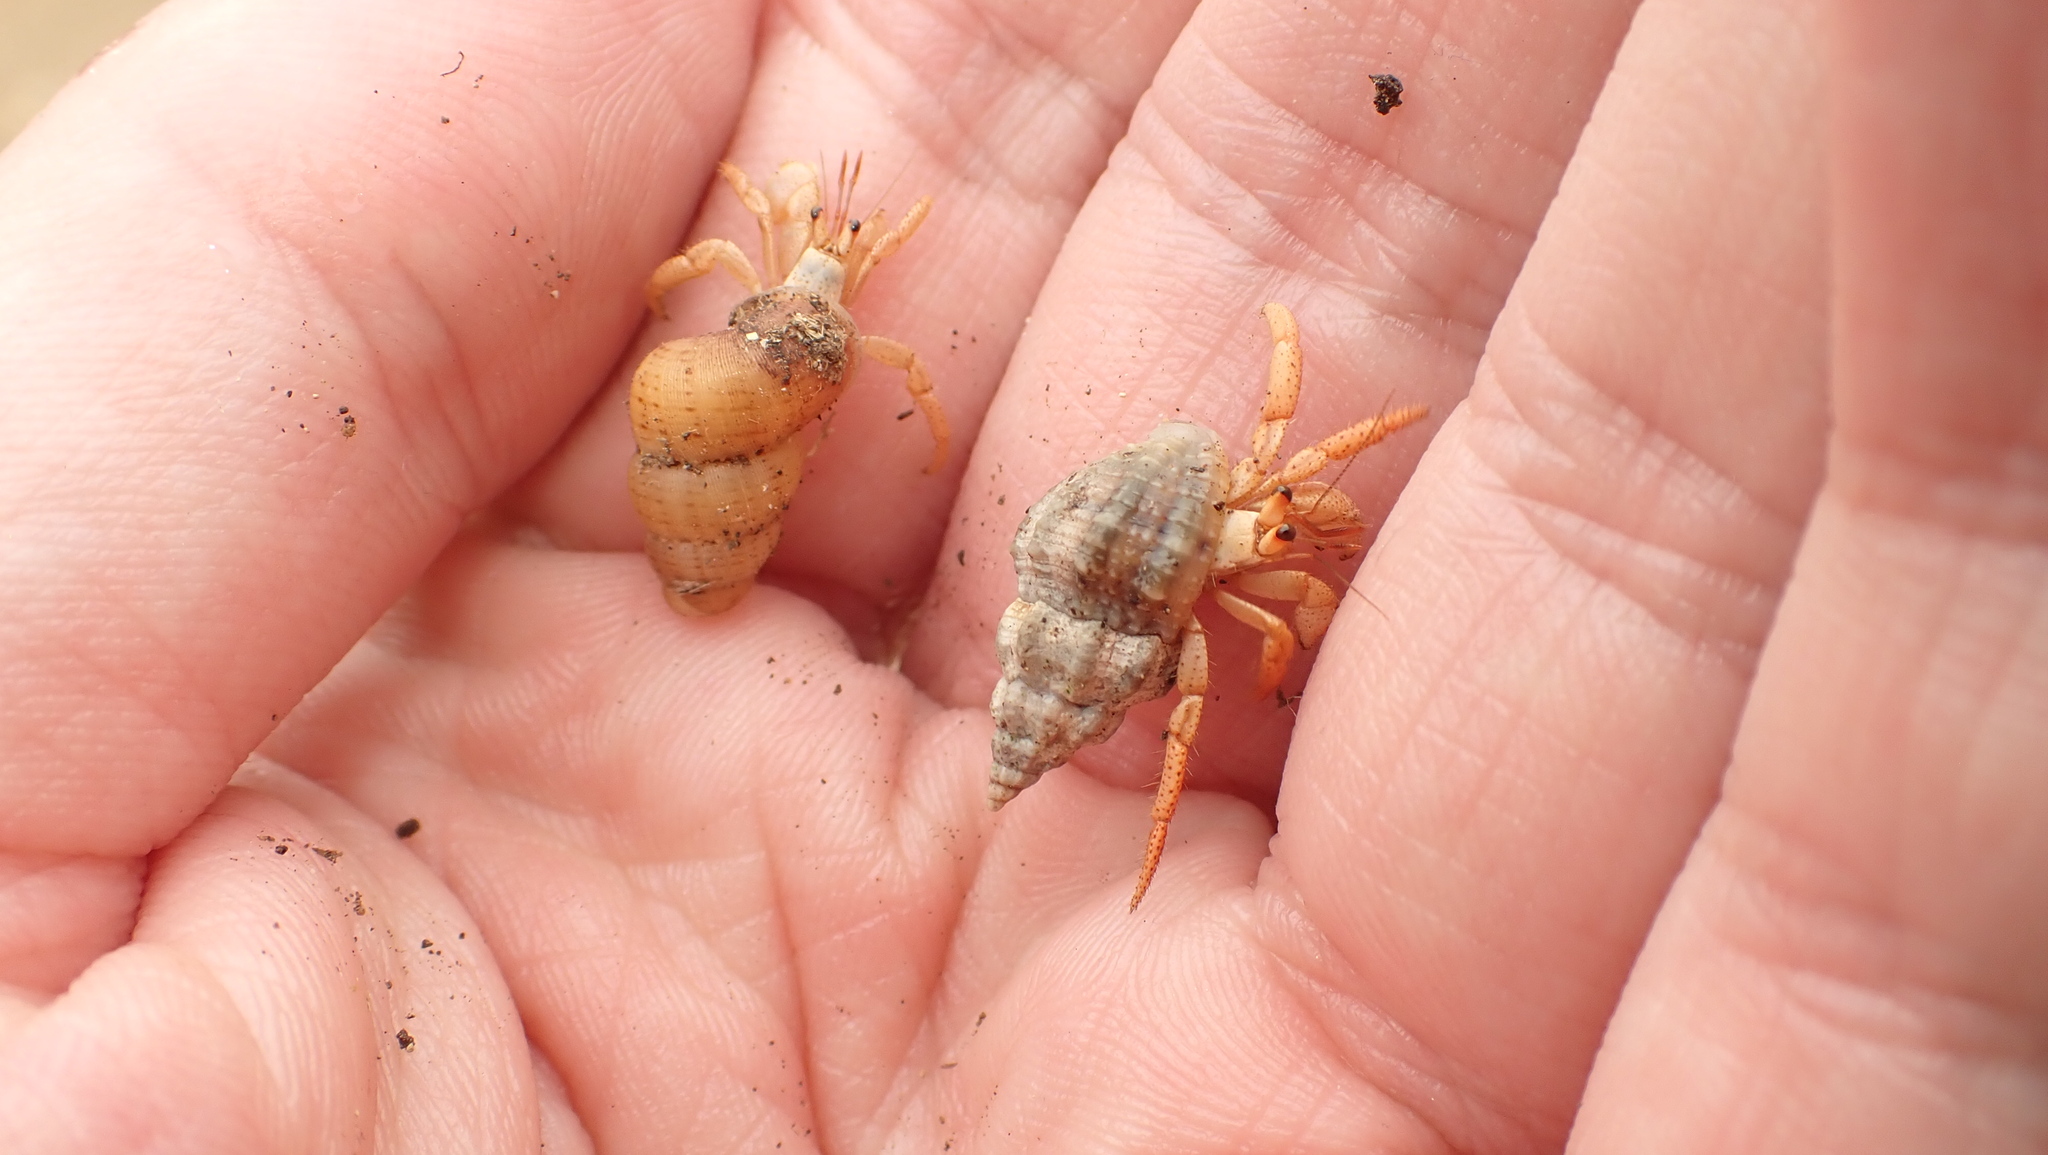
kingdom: Animalia
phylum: Arthropoda
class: Malacostraca
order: Decapoda
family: Coenobitidae
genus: Coenobita
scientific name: Coenobita clypeatus
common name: Caribbean hermit crab
